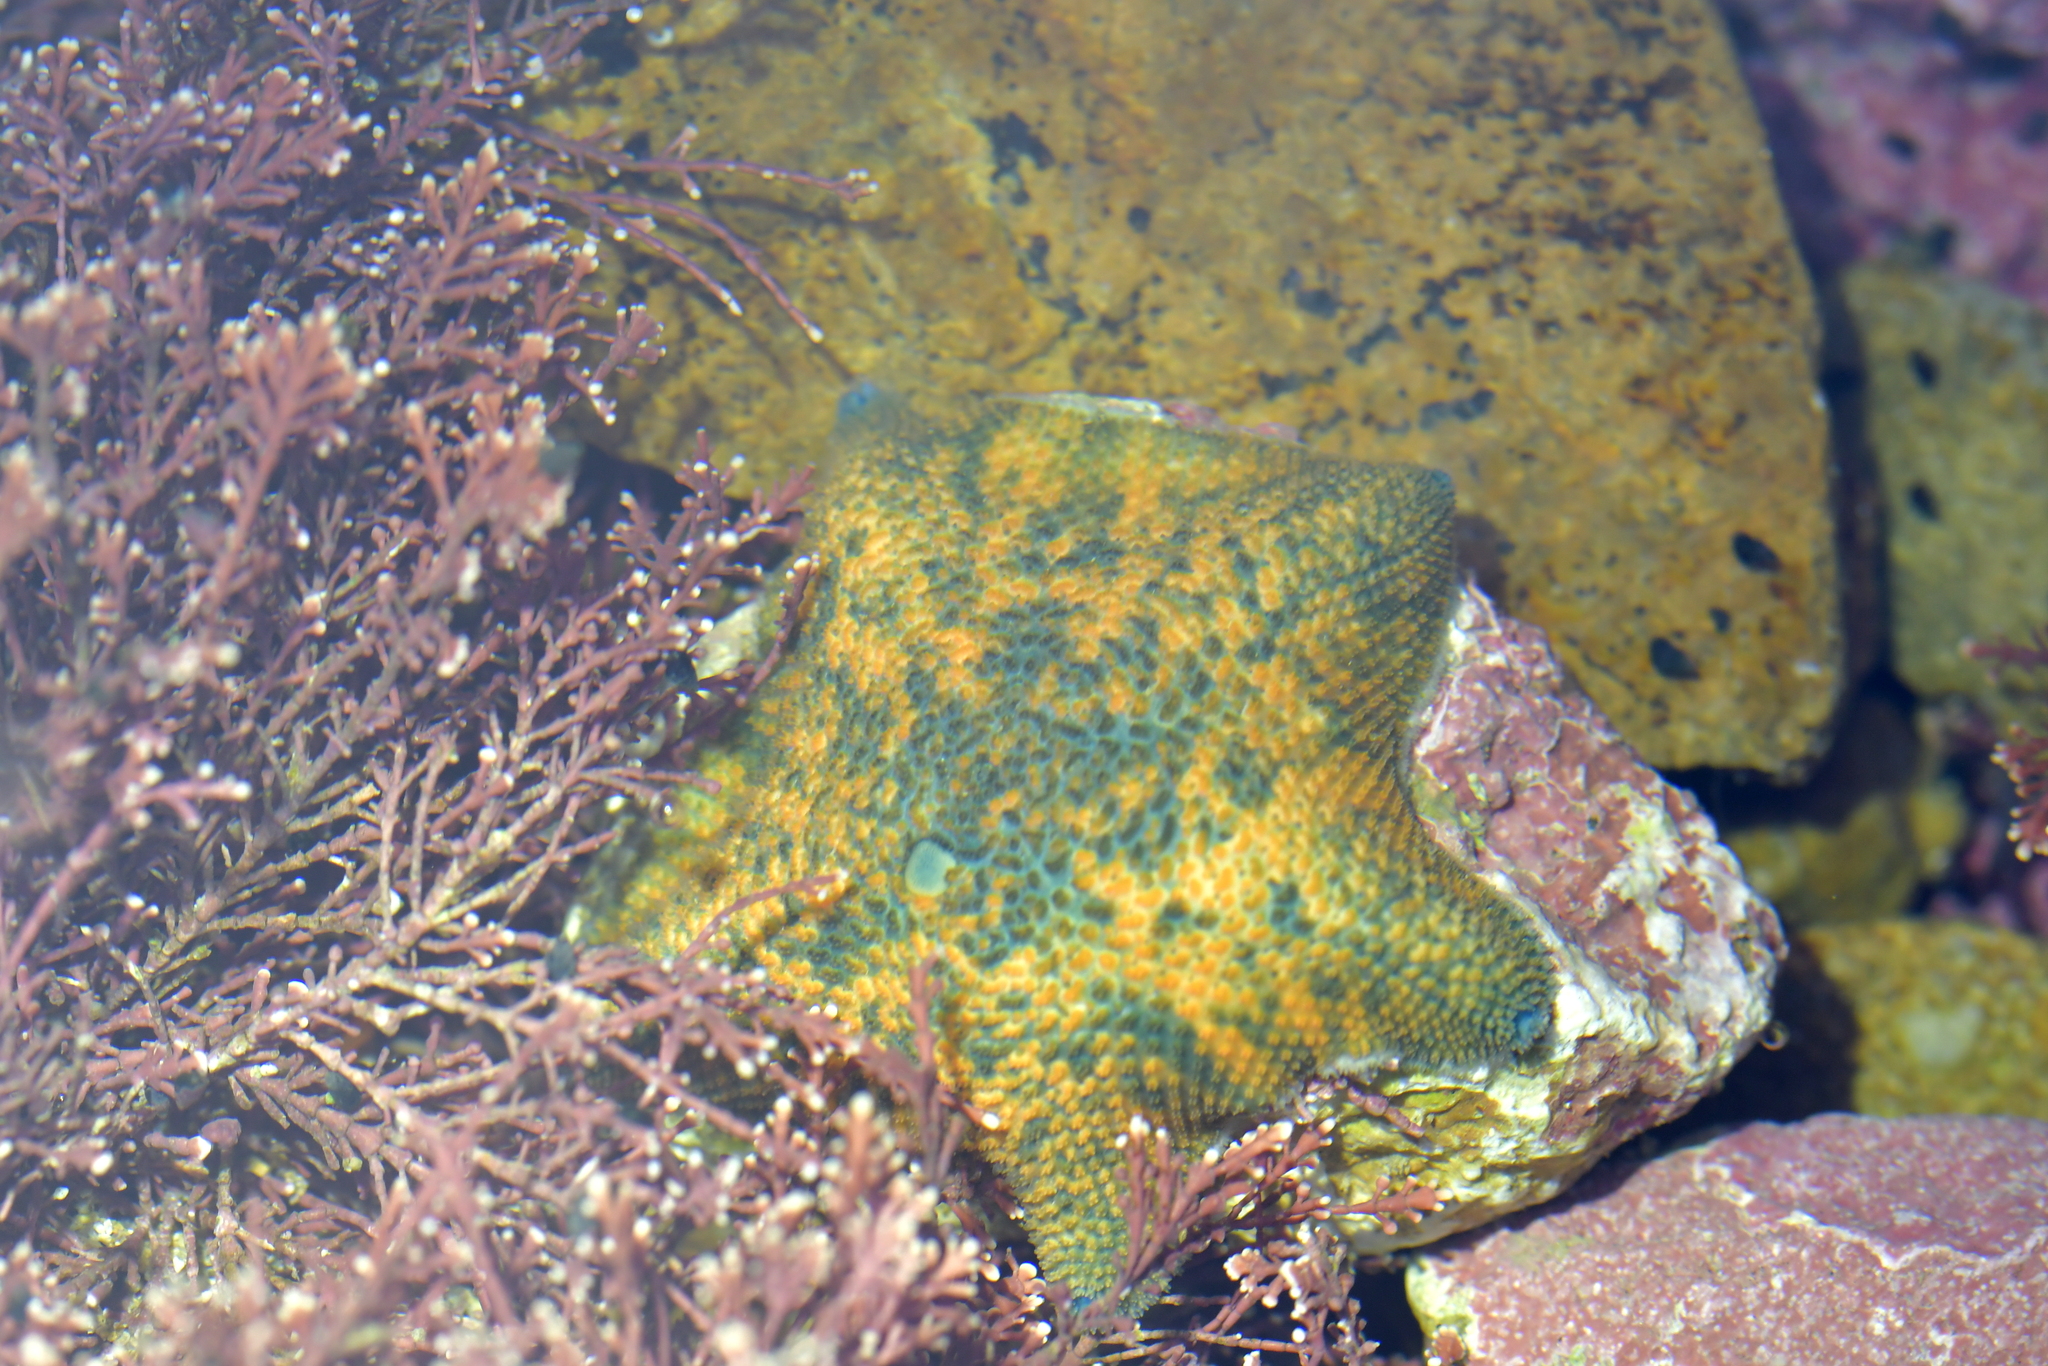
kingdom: Animalia
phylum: Echinodermata
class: Asteroidea
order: Valvatida
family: Asterinidae
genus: Patiriella
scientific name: Patiriella regularis
